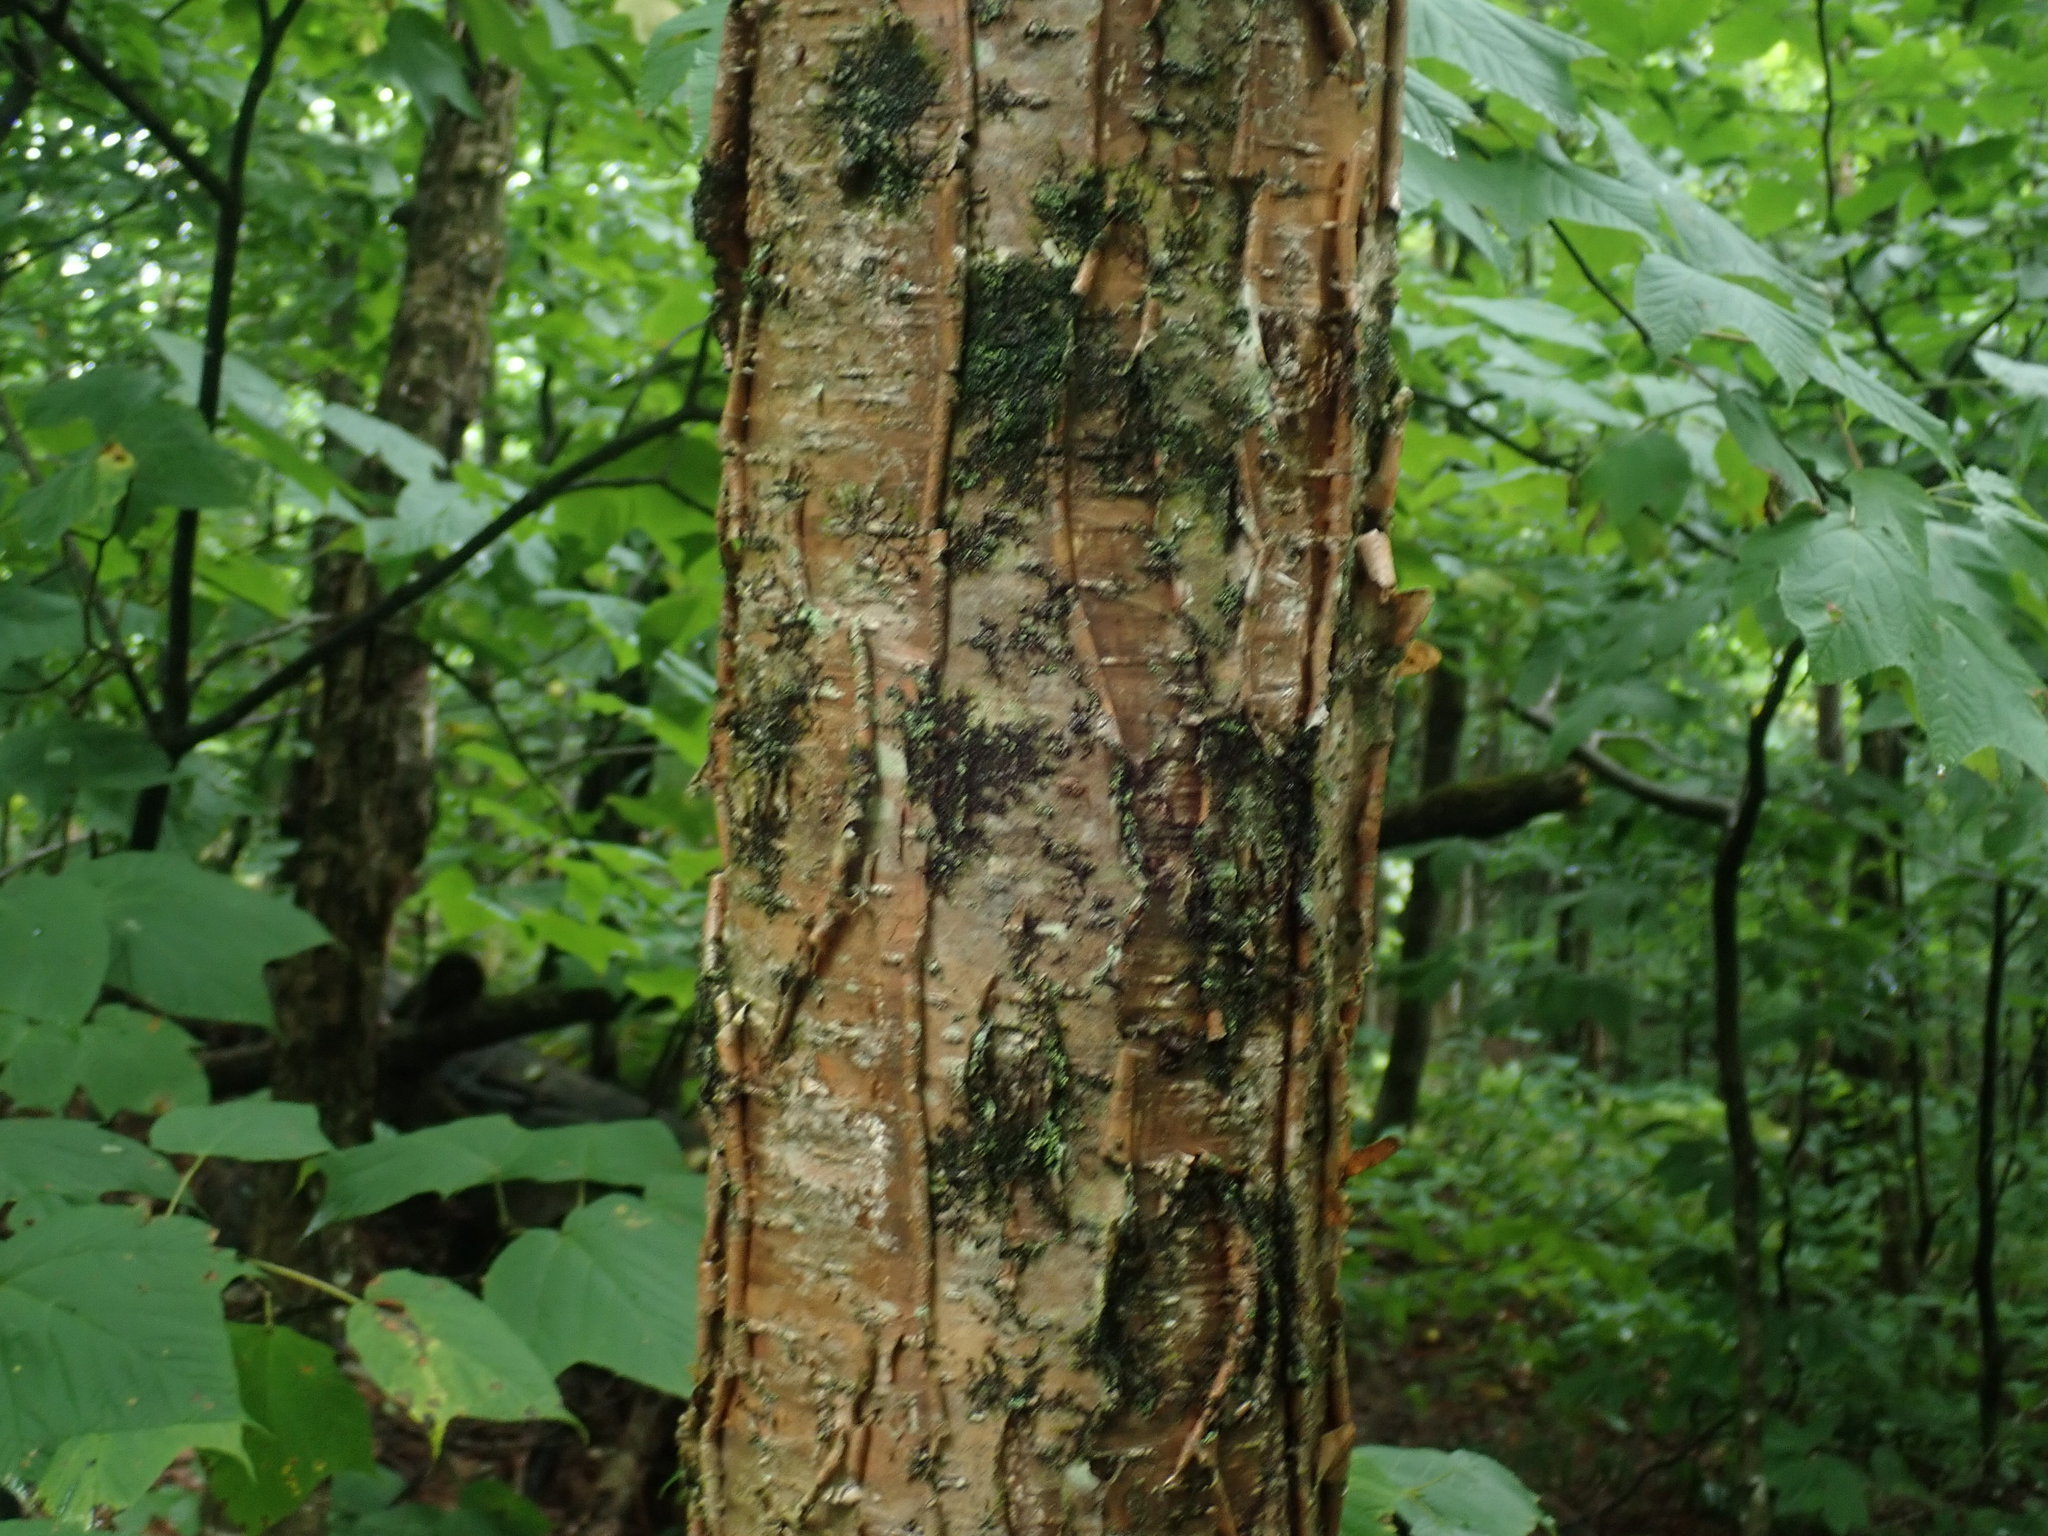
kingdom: Plantae
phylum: Tracheophyta
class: Magnoliopsida
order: Fagales
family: Betulaceae
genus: Betula
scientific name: Betula alleghaniensis
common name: Yellow birch
